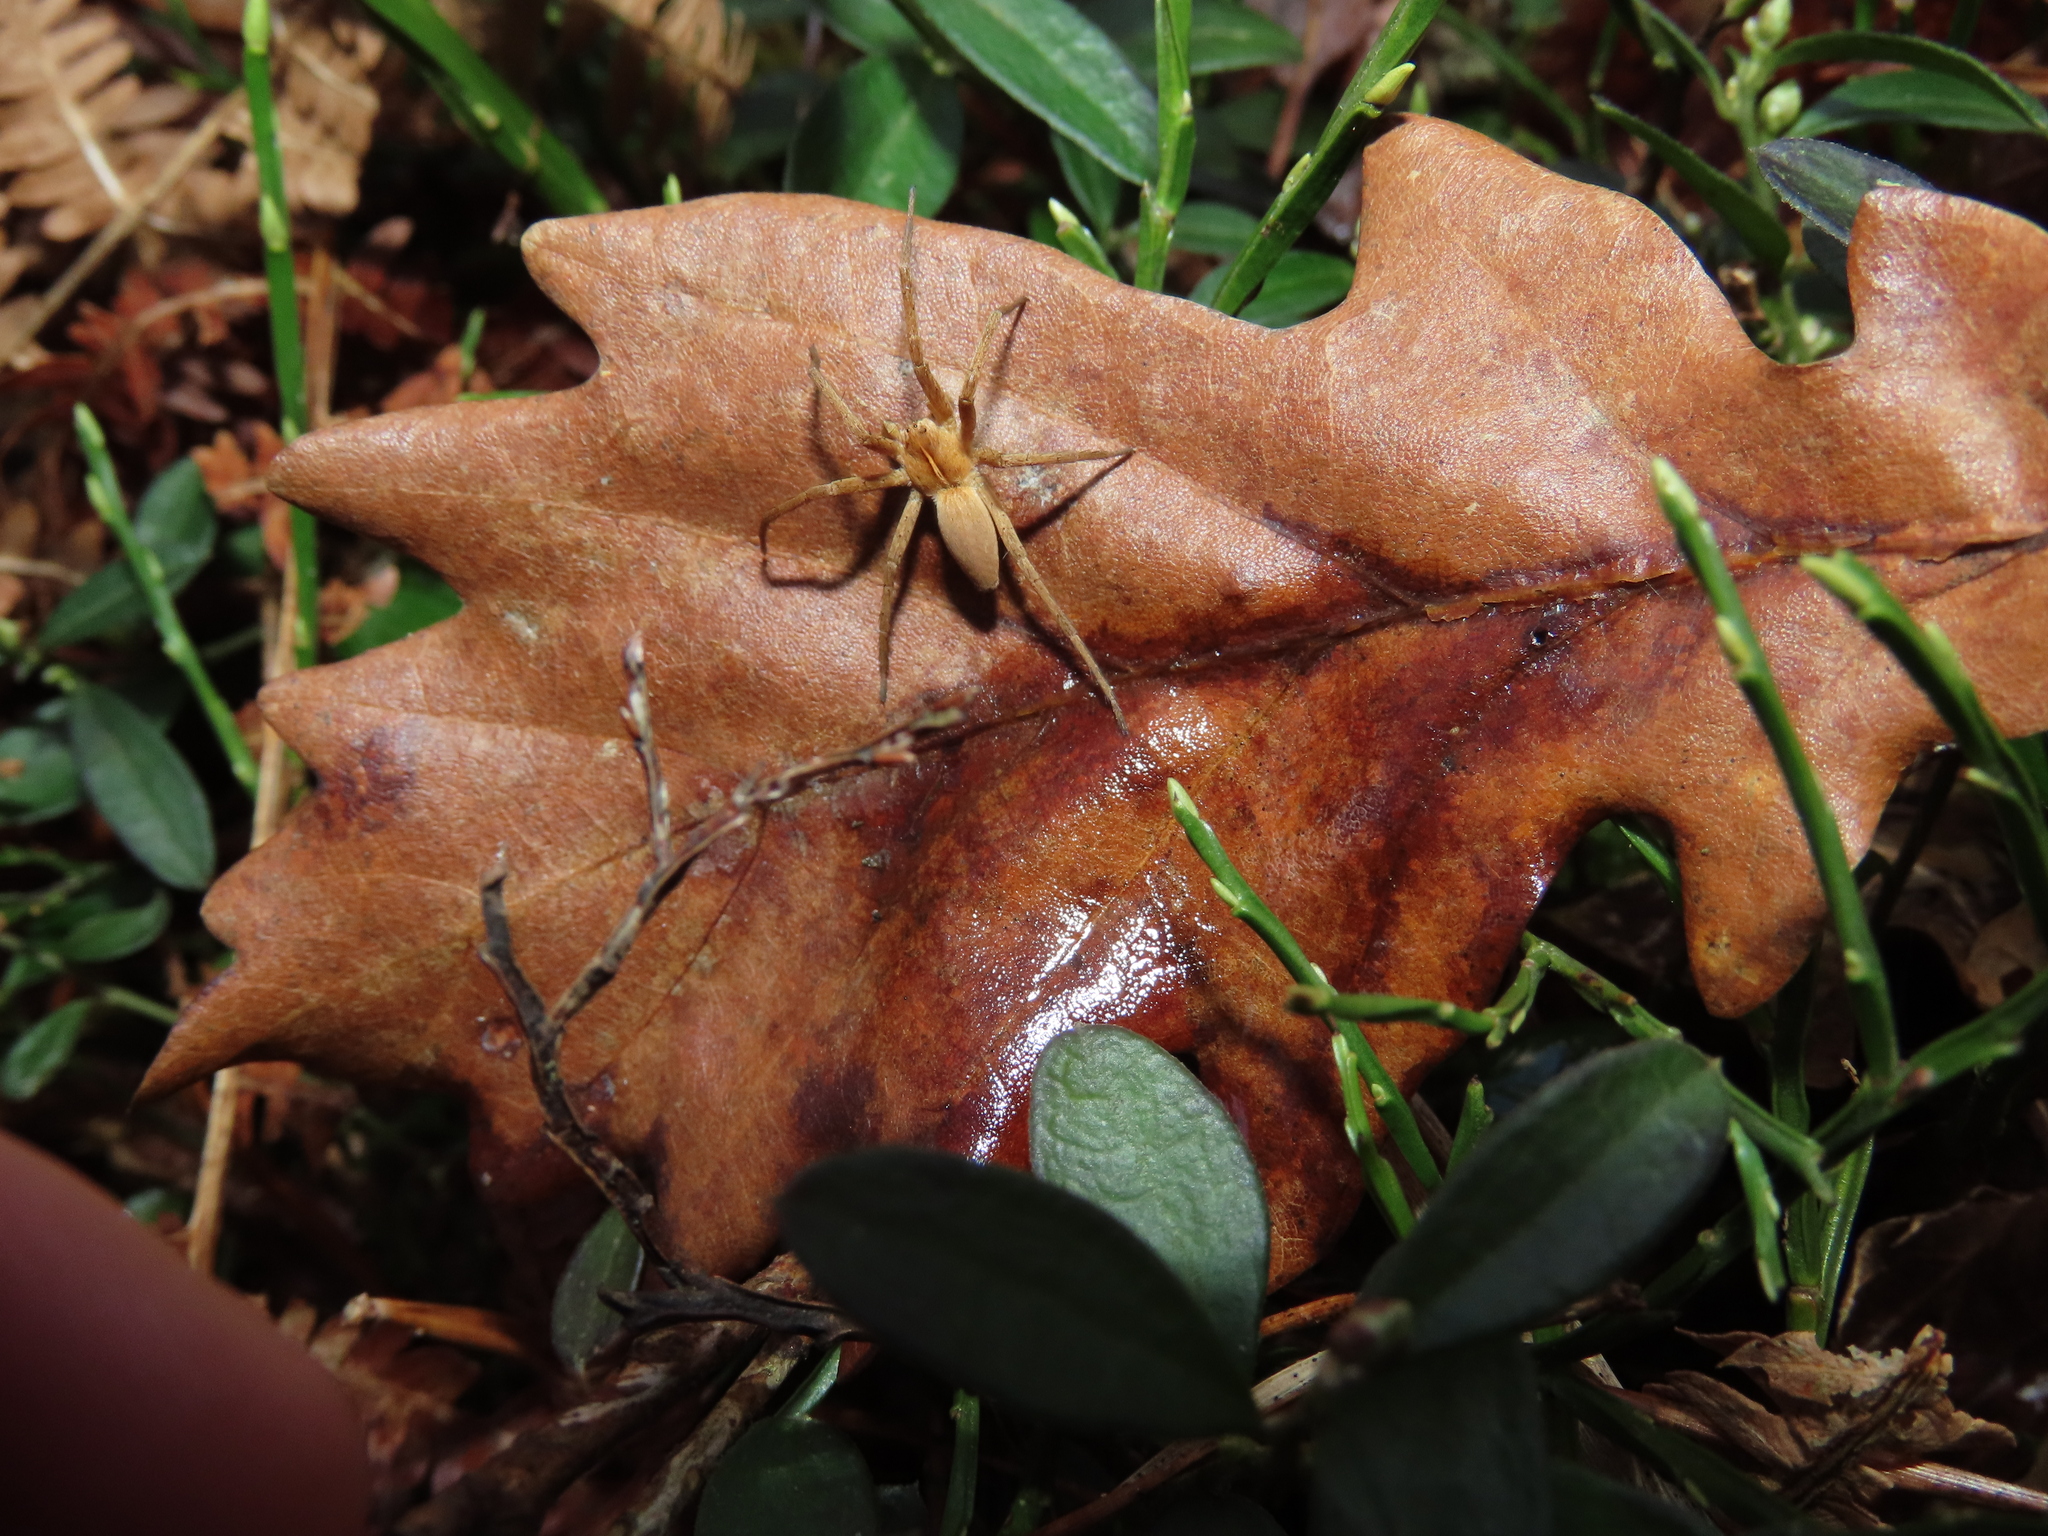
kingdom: Animalia
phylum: Arthropoda
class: Arachnida
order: Araneae
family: Pisauridae
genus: Pisaura
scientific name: Pisaura mirabilis
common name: Tent spider
